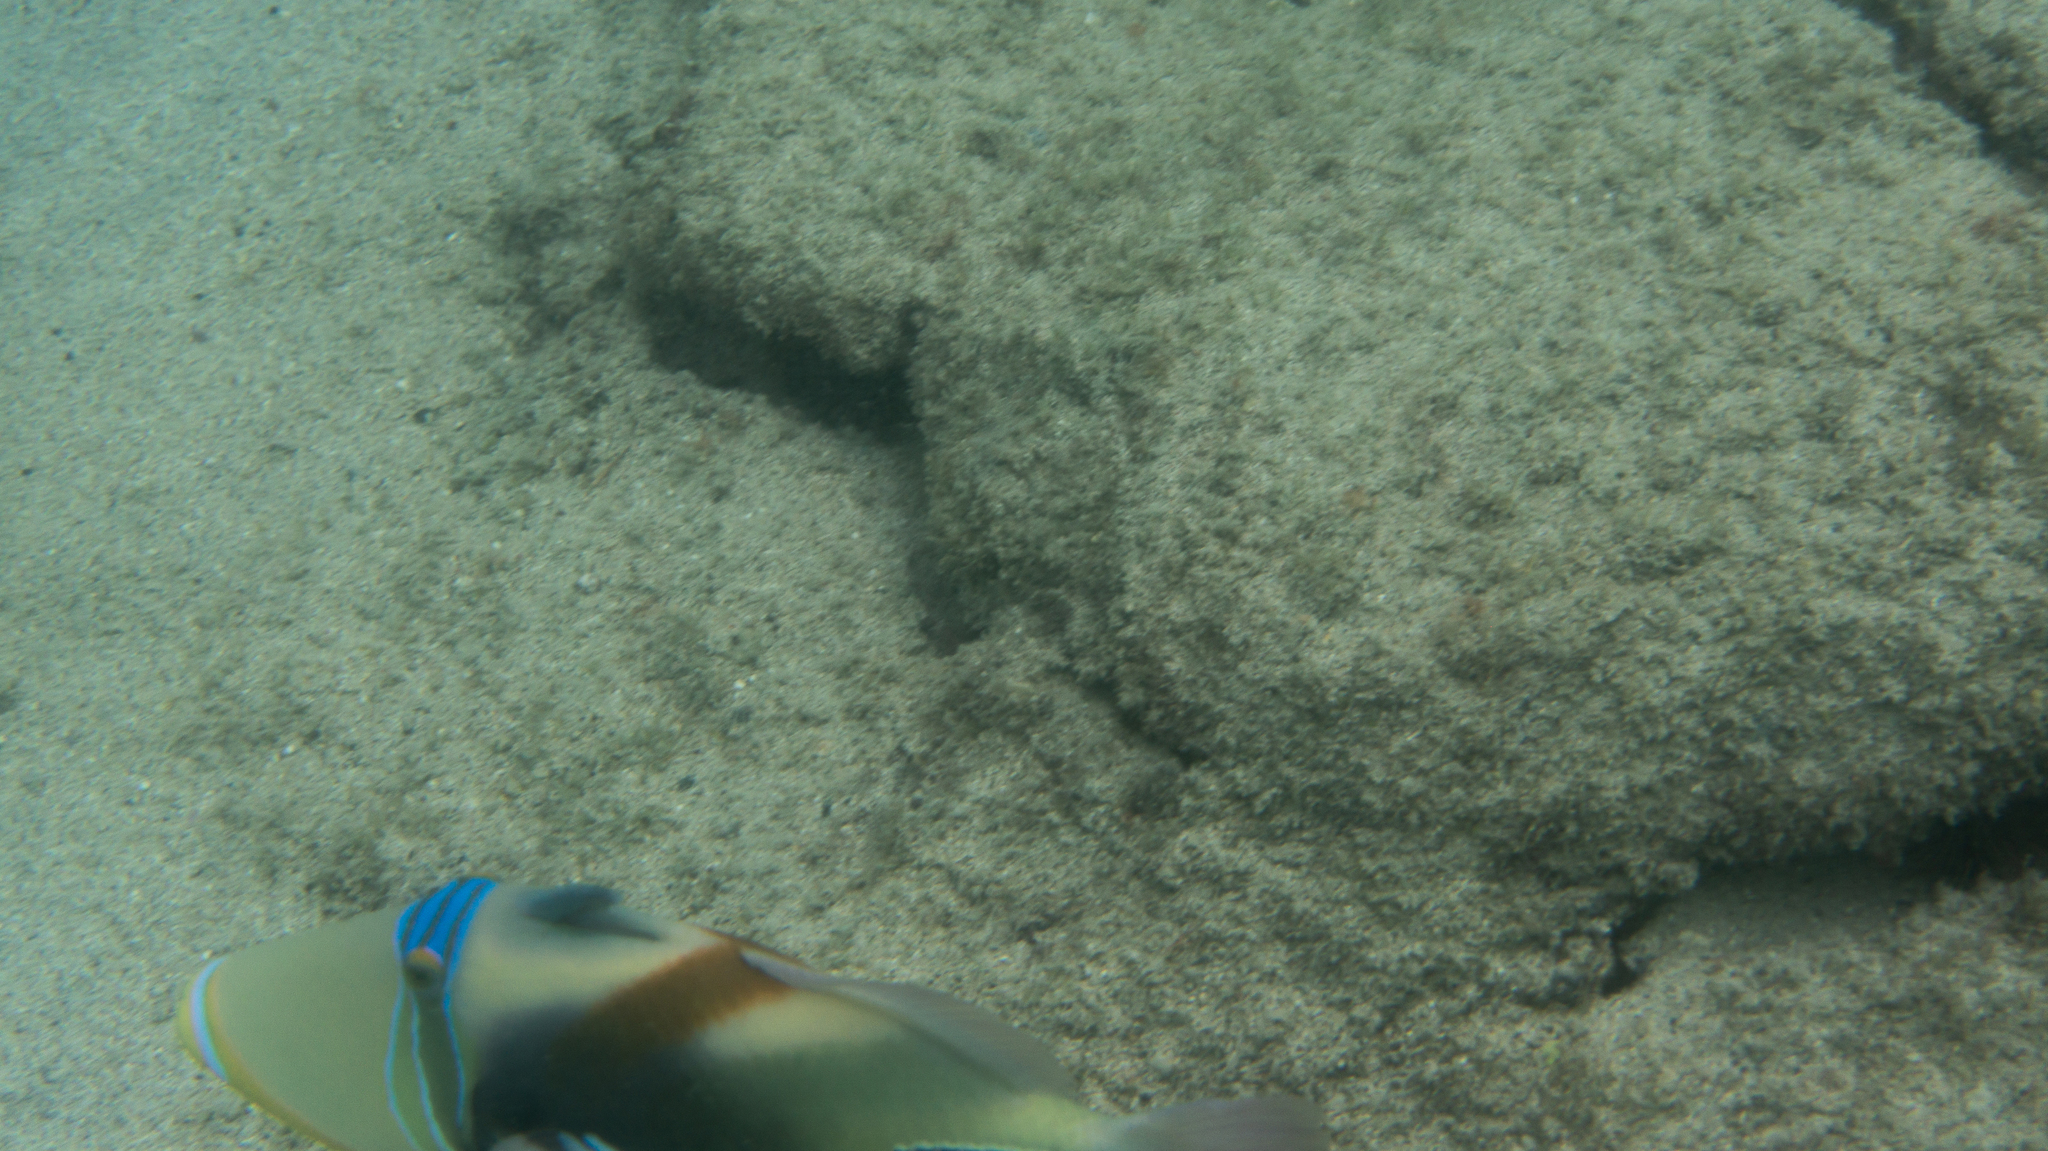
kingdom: Animalia
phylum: Chordata
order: Tetraodontiformes
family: Balistidae
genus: Rhinecanthus
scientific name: Rhinecanthus aculeatus
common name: White-banded triggerfish
